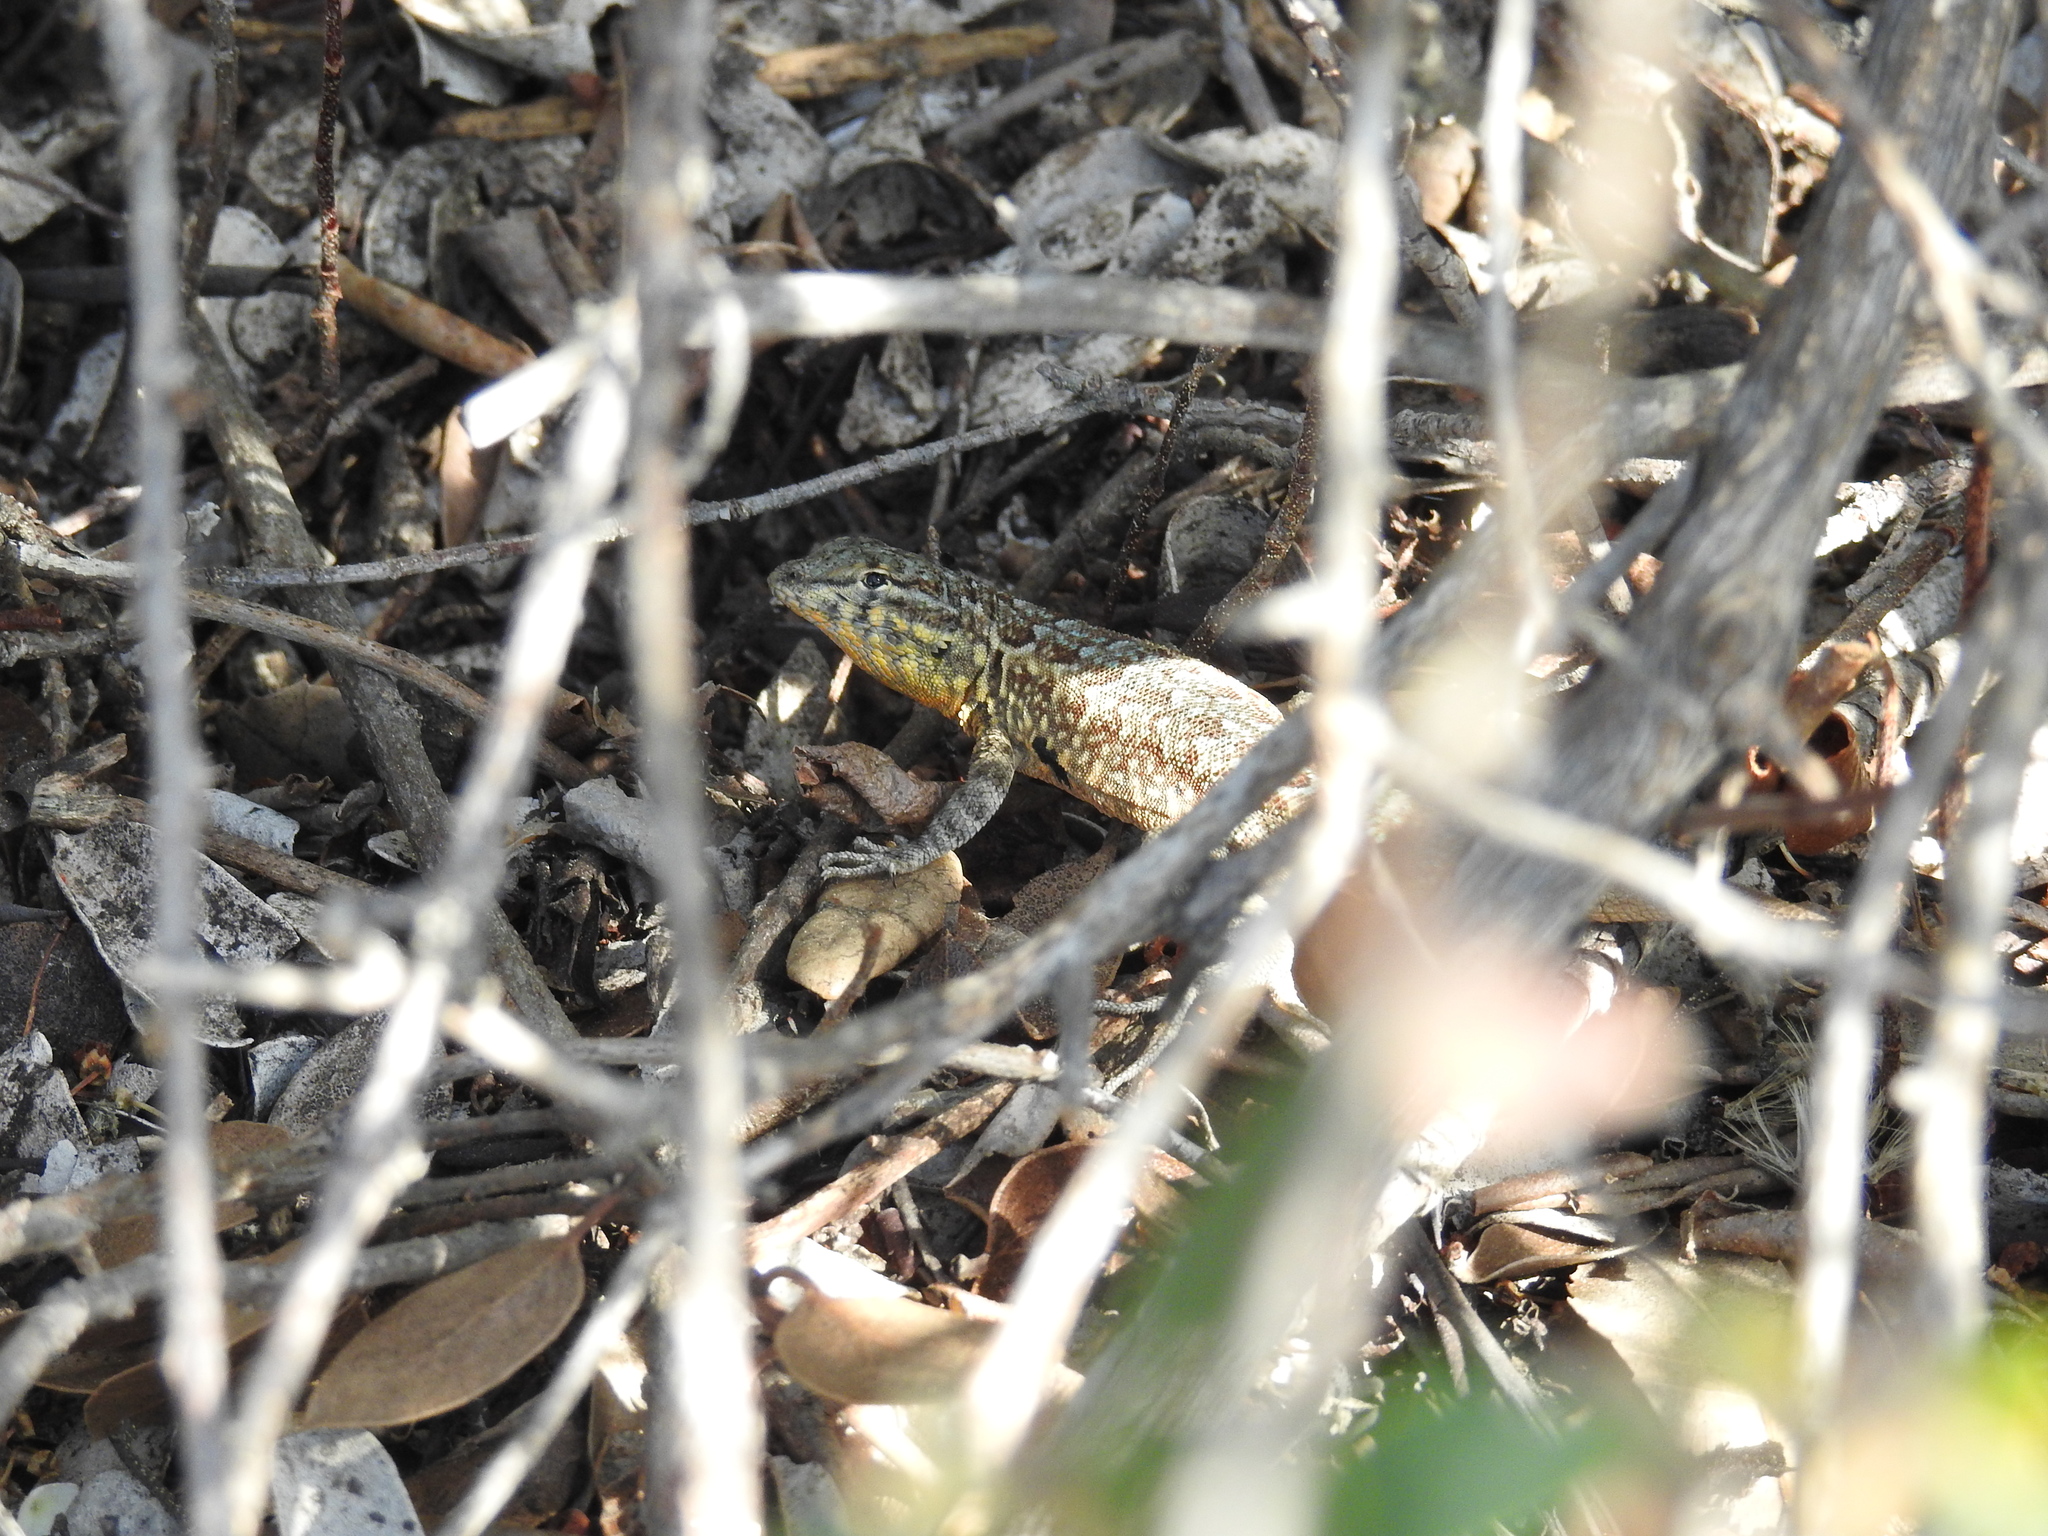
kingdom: Animalia
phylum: Chordata
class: Squamata
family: Phrynosomatidae
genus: Uta
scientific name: Uta stansburiana
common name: Side-blotched lizard
